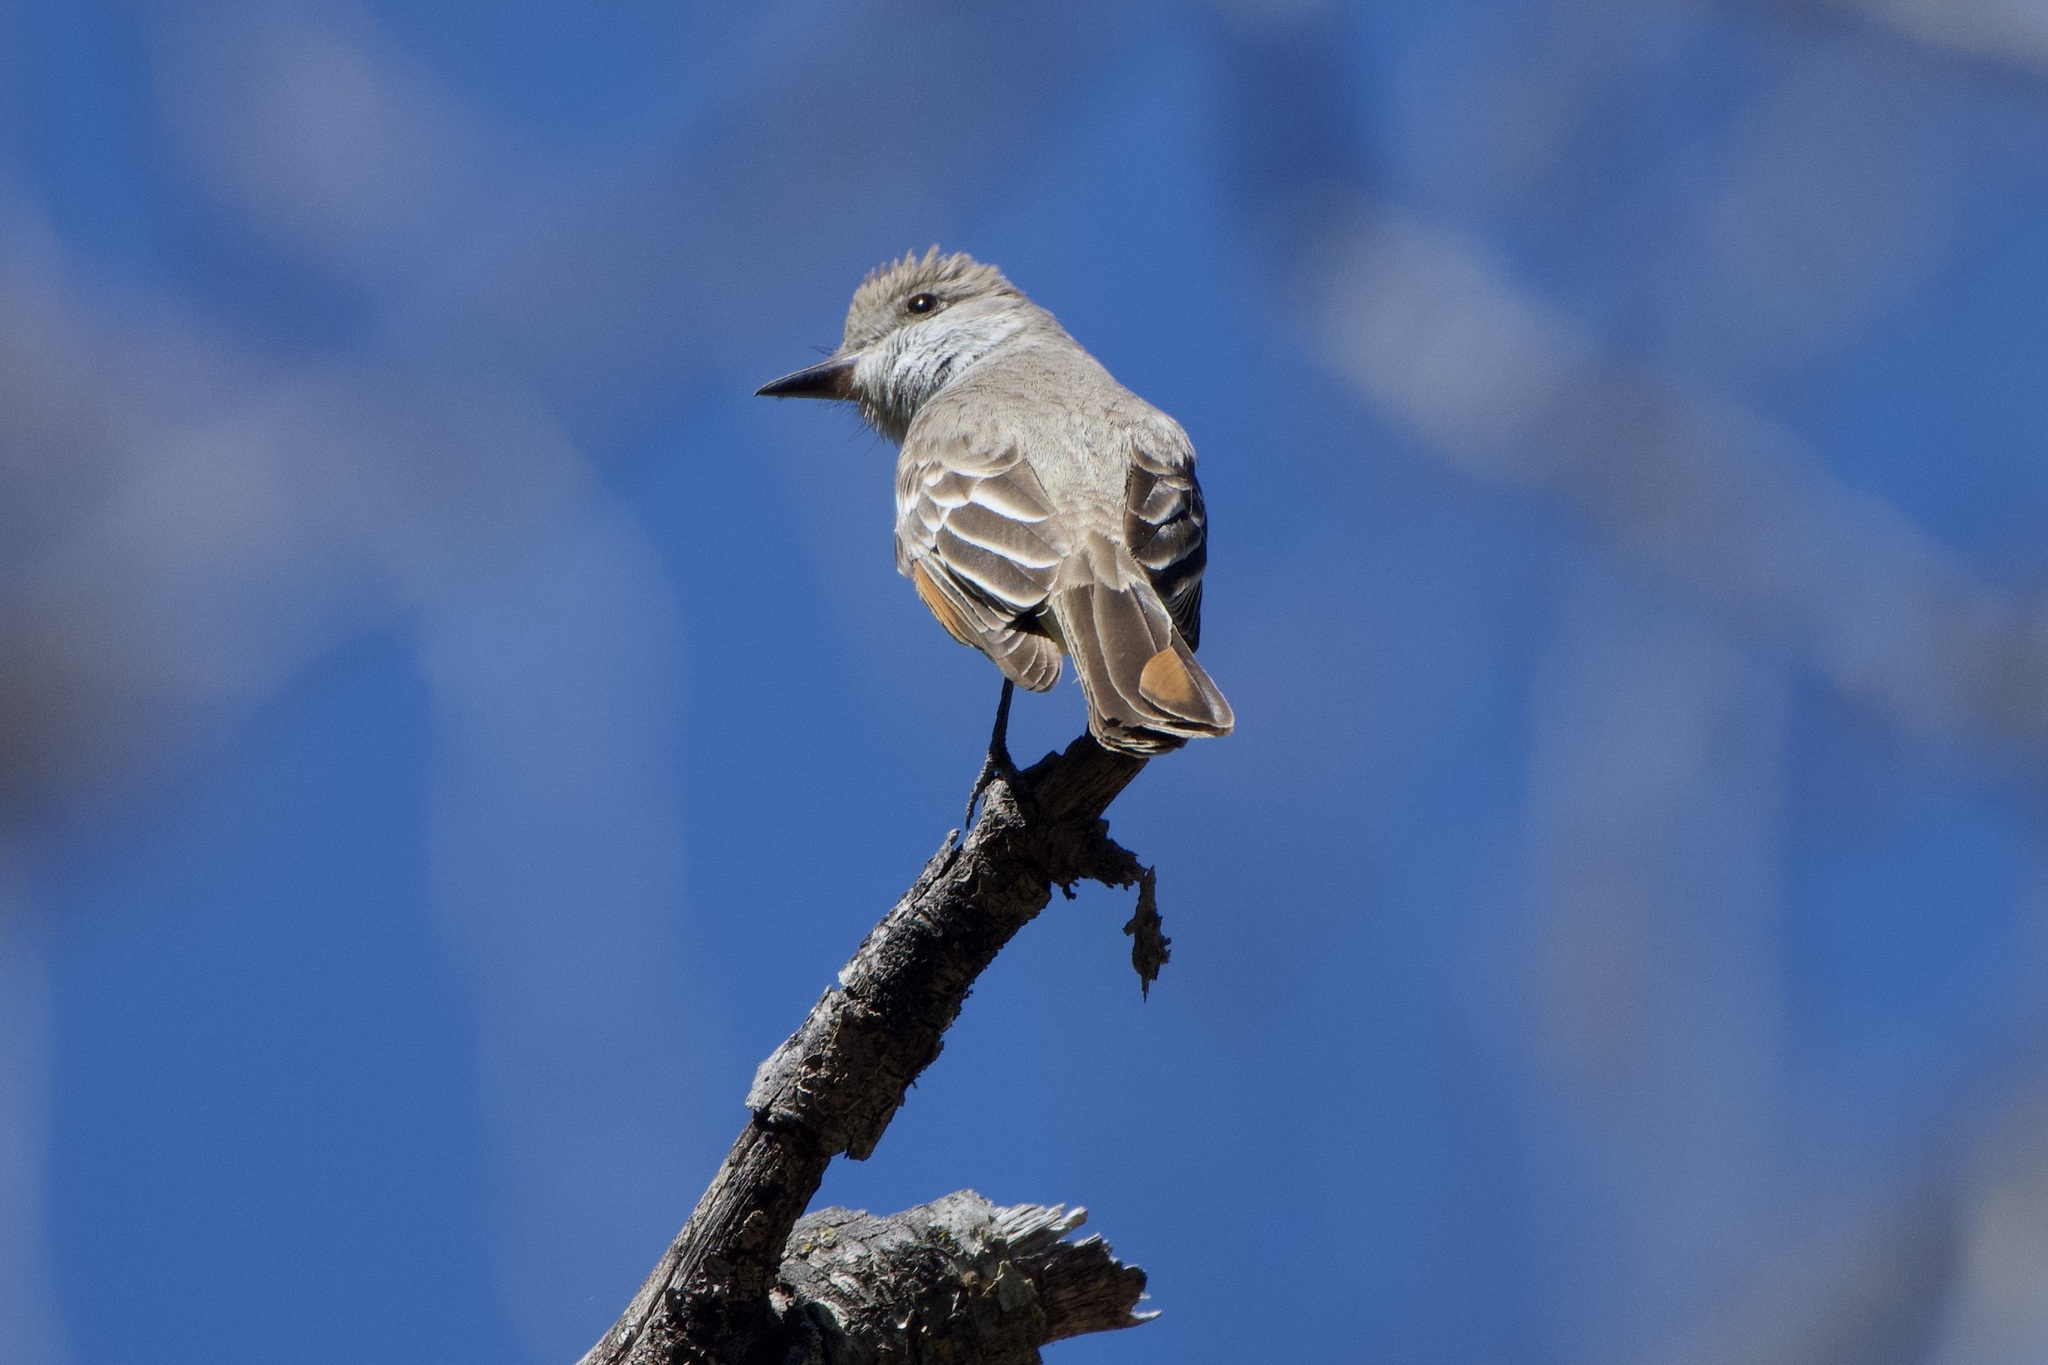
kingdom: Animalia
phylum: Chordata
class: Aves
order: Passeriformes
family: Tyrannidae
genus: Myiarchus
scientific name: Myiarchus cinerascens
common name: Ash-throated flycatcher
